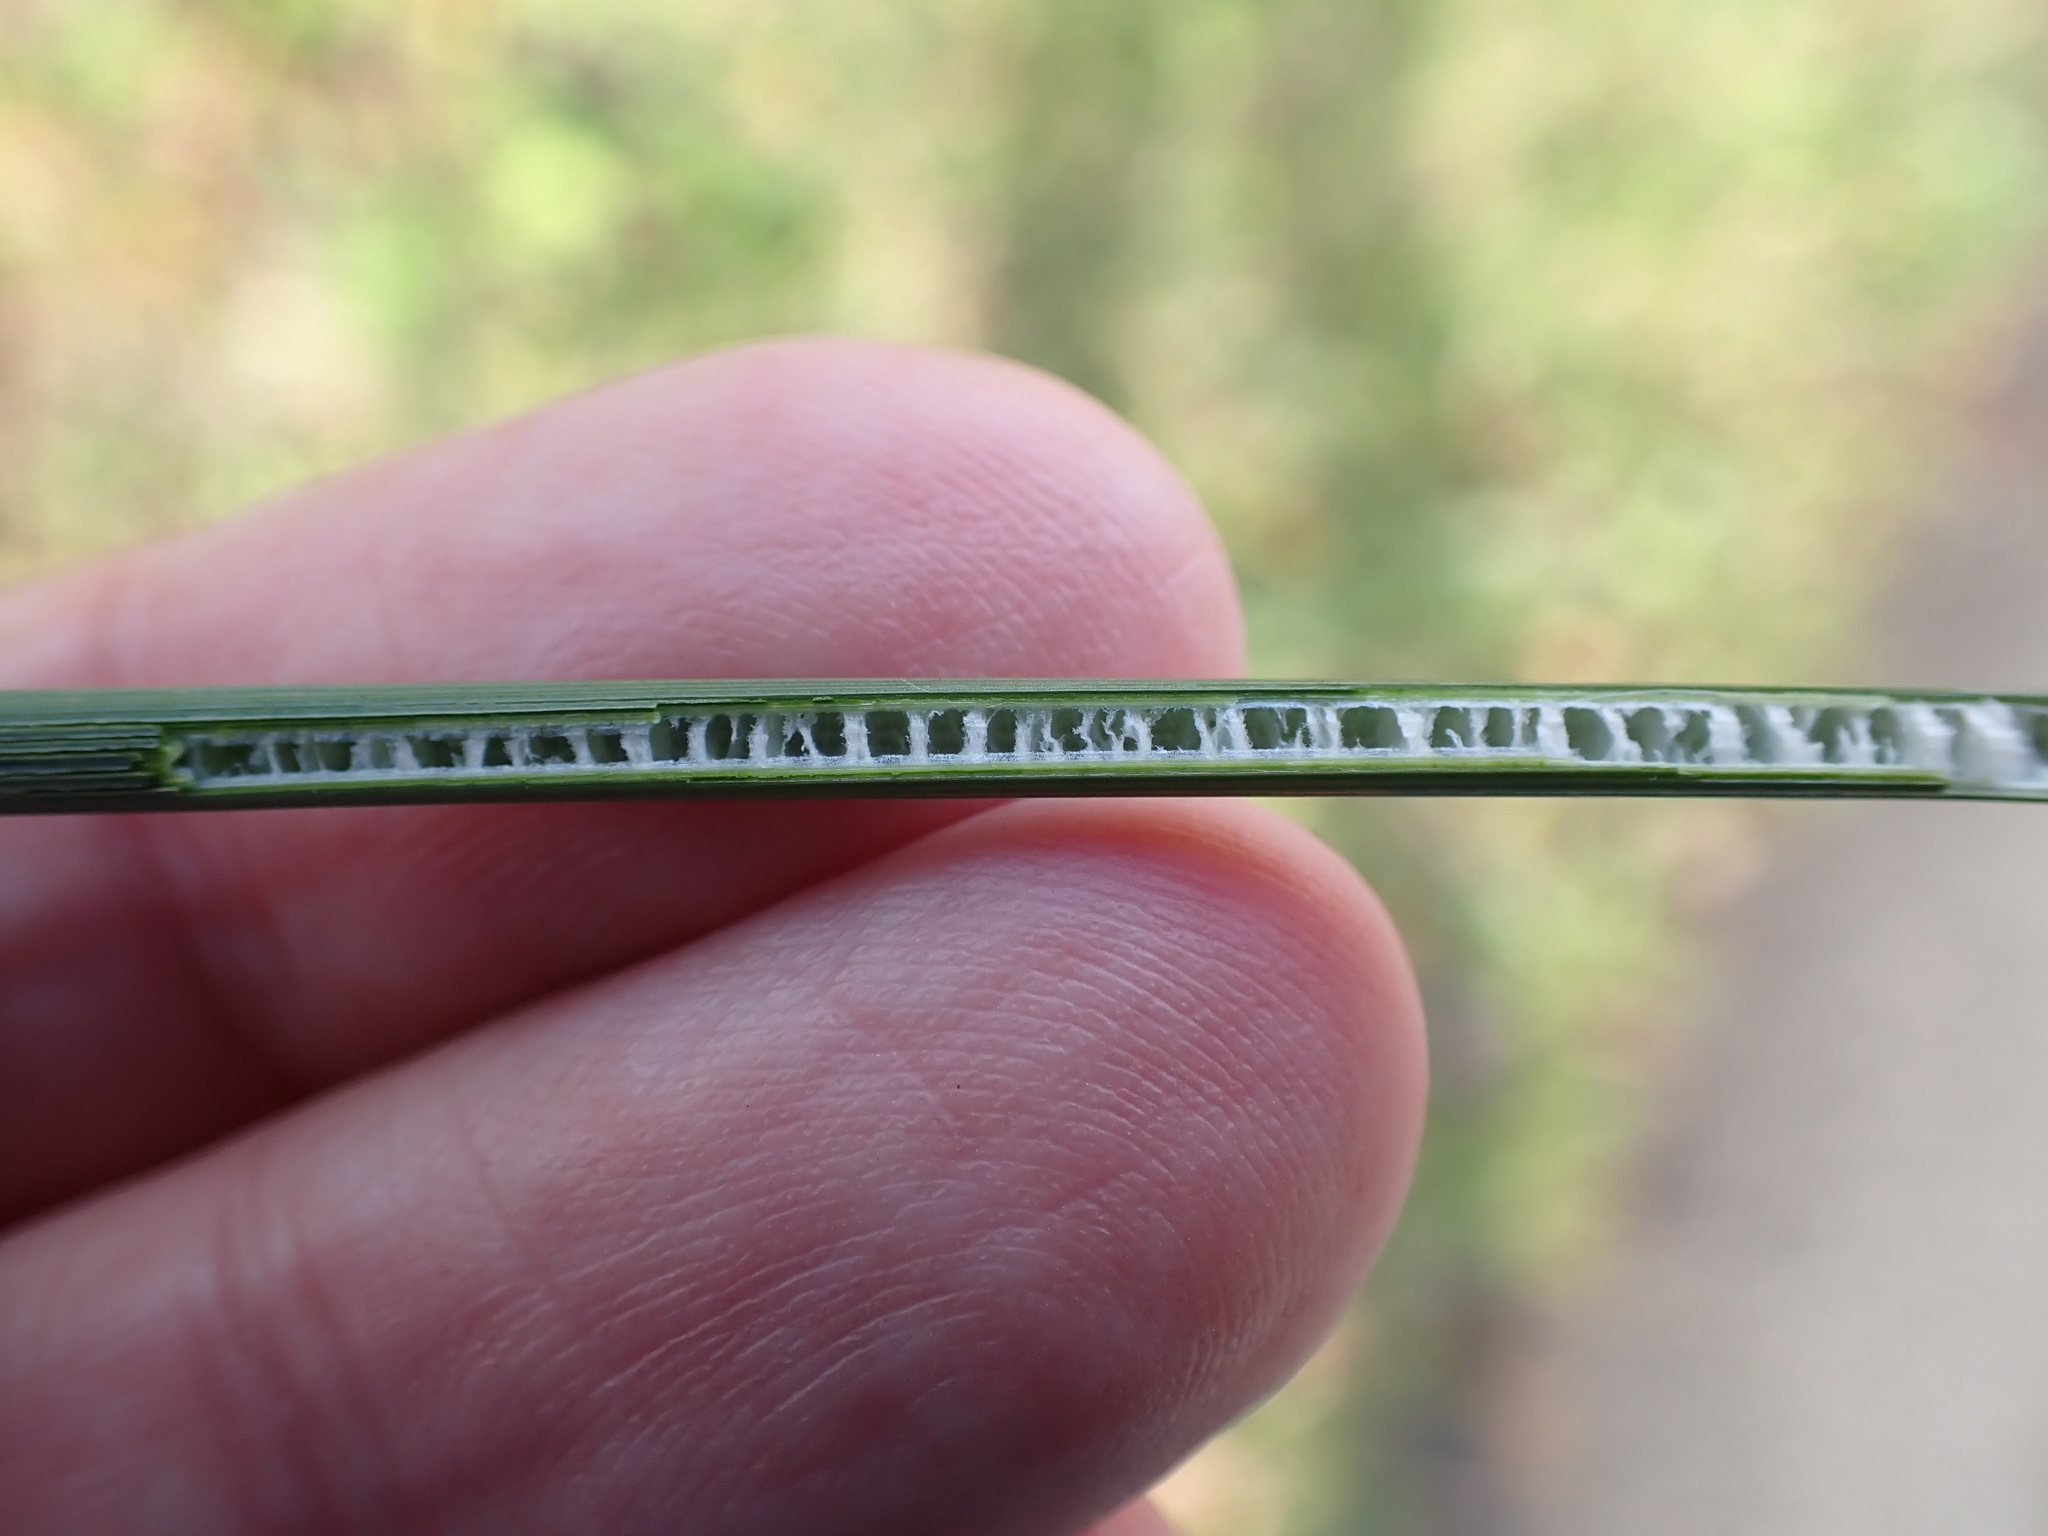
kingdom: Plantae
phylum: Tracheophyta
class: Liliopsida
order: Poales
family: Juncaceae
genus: Juncus
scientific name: Juncus inflexus
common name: Hard rush
